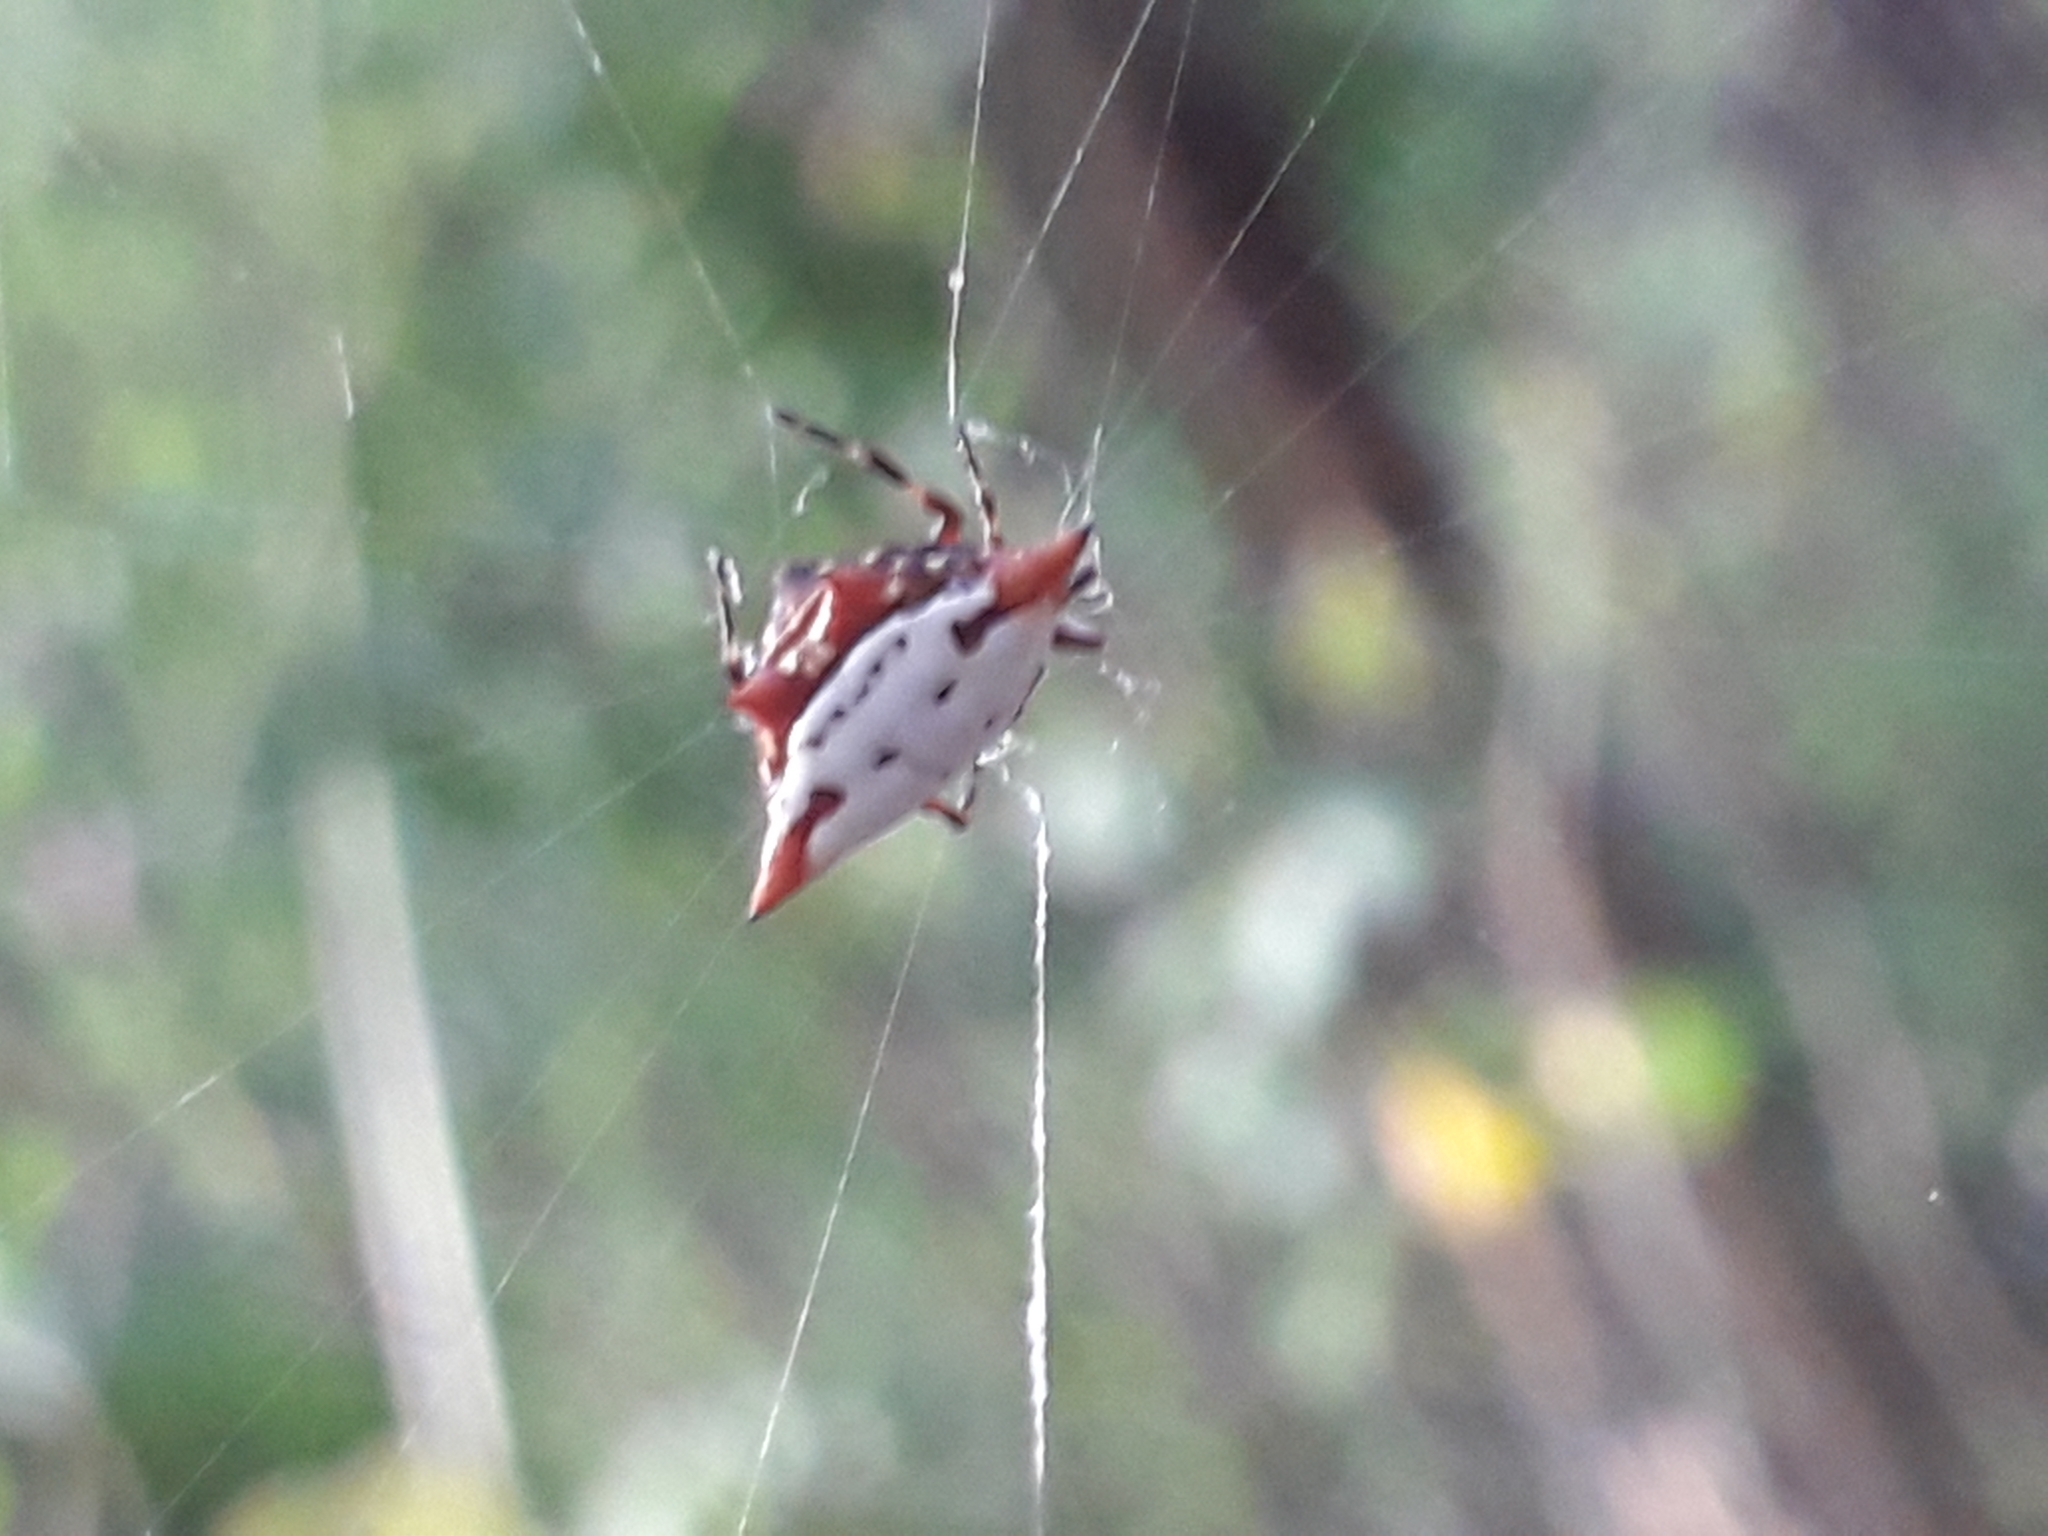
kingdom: Animalia
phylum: Arthropoda
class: Arachnida
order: Araneae
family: Araneidae
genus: Gasteracantha
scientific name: Gasteracantha cancriformis
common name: Orb weavers
